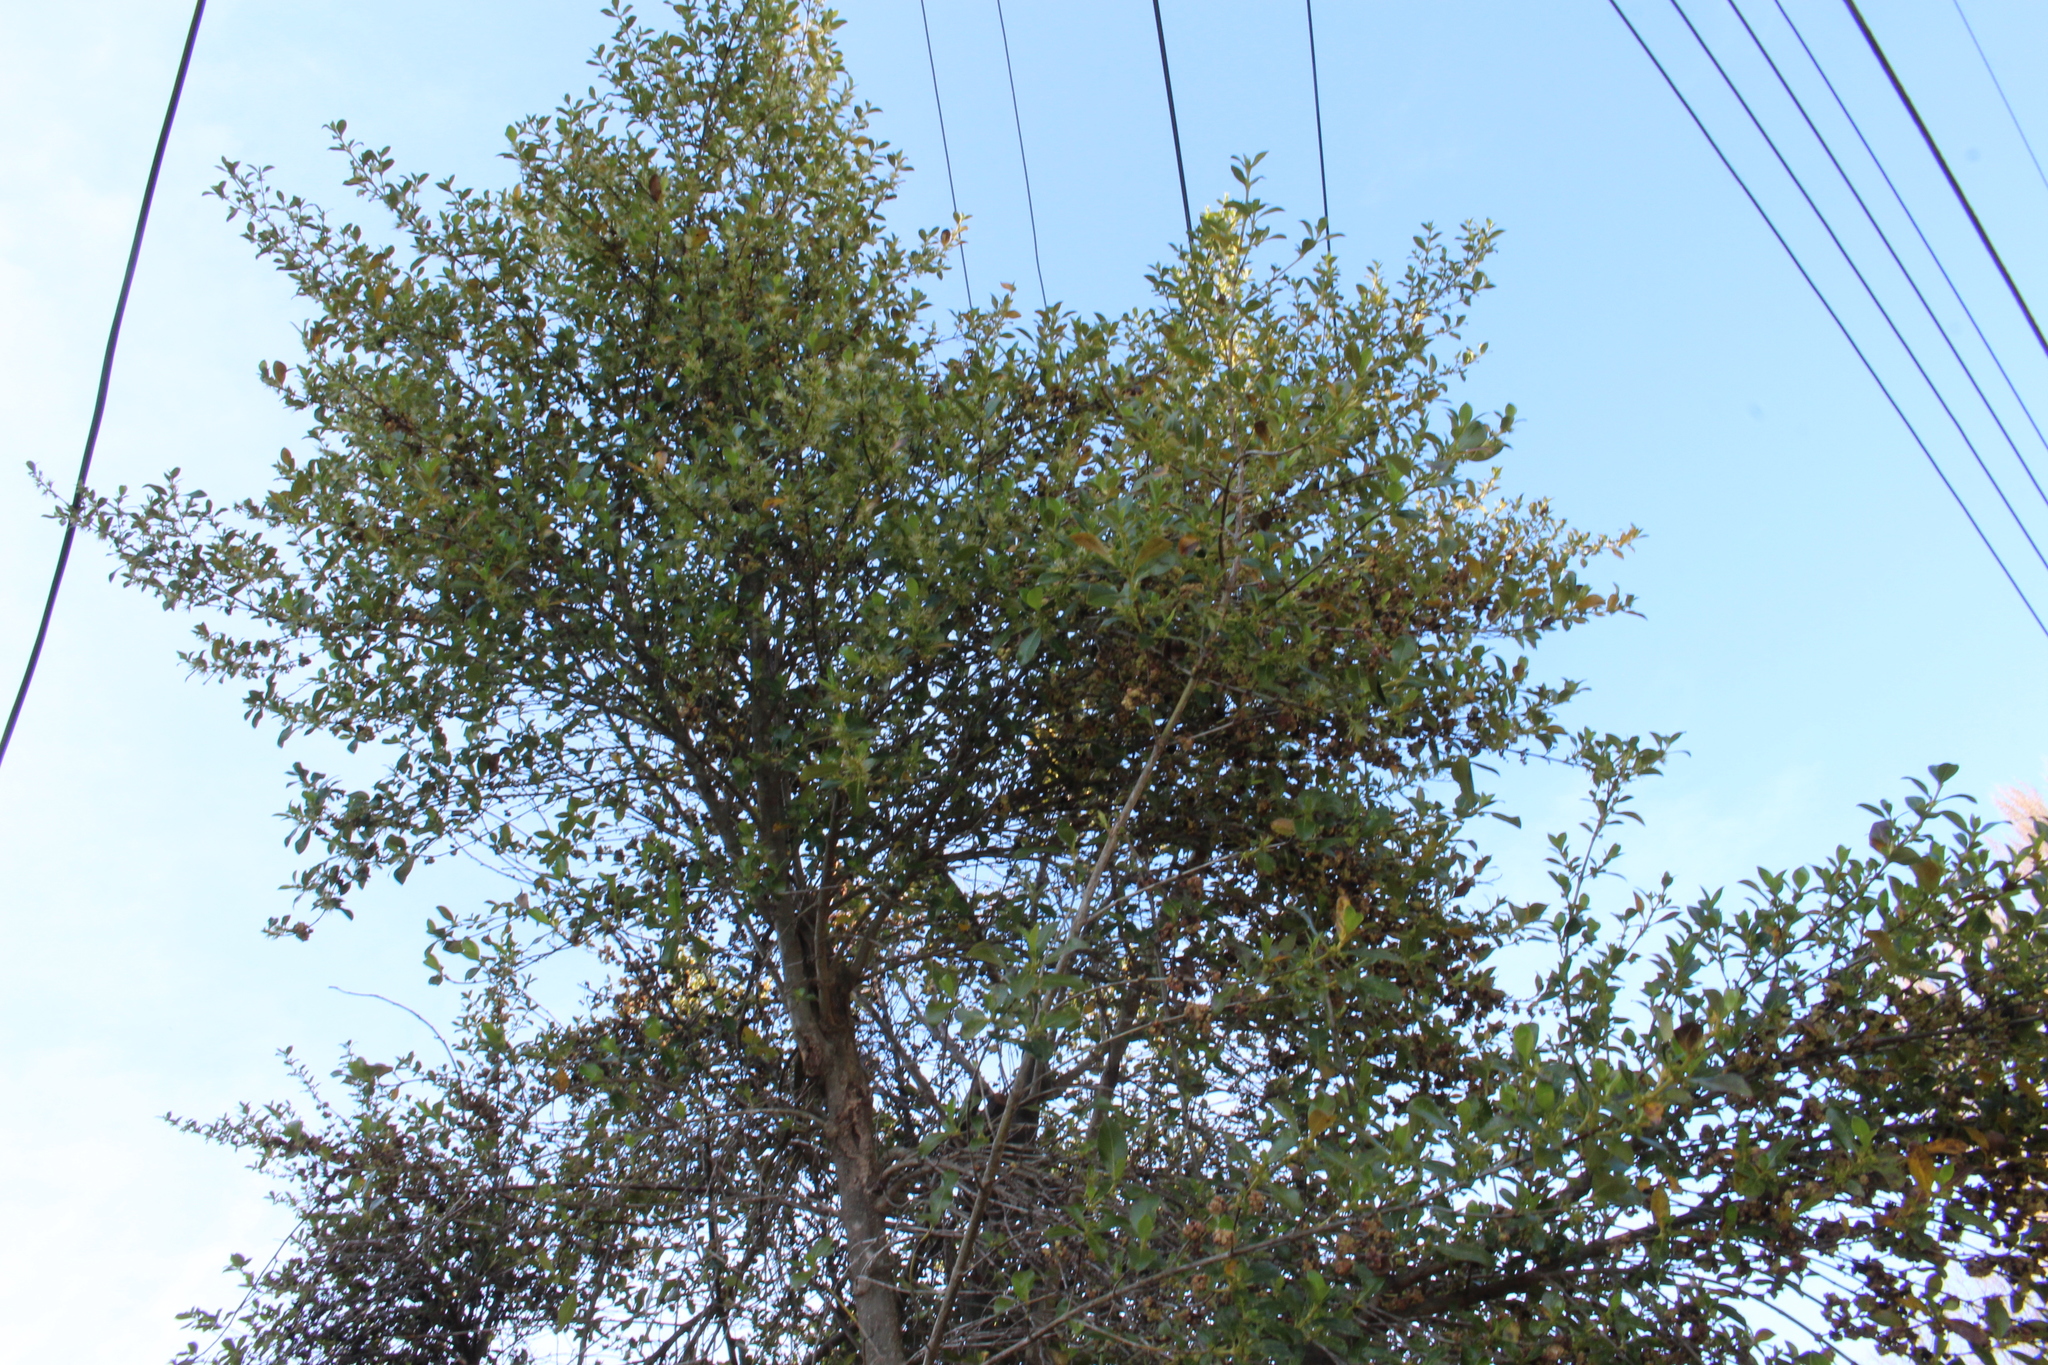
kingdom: Plantae
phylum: Tracheophyta
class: Magnoliopsida
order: Gentianales
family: Rubiaceae
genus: Coprosma
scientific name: Coprosma robusta
